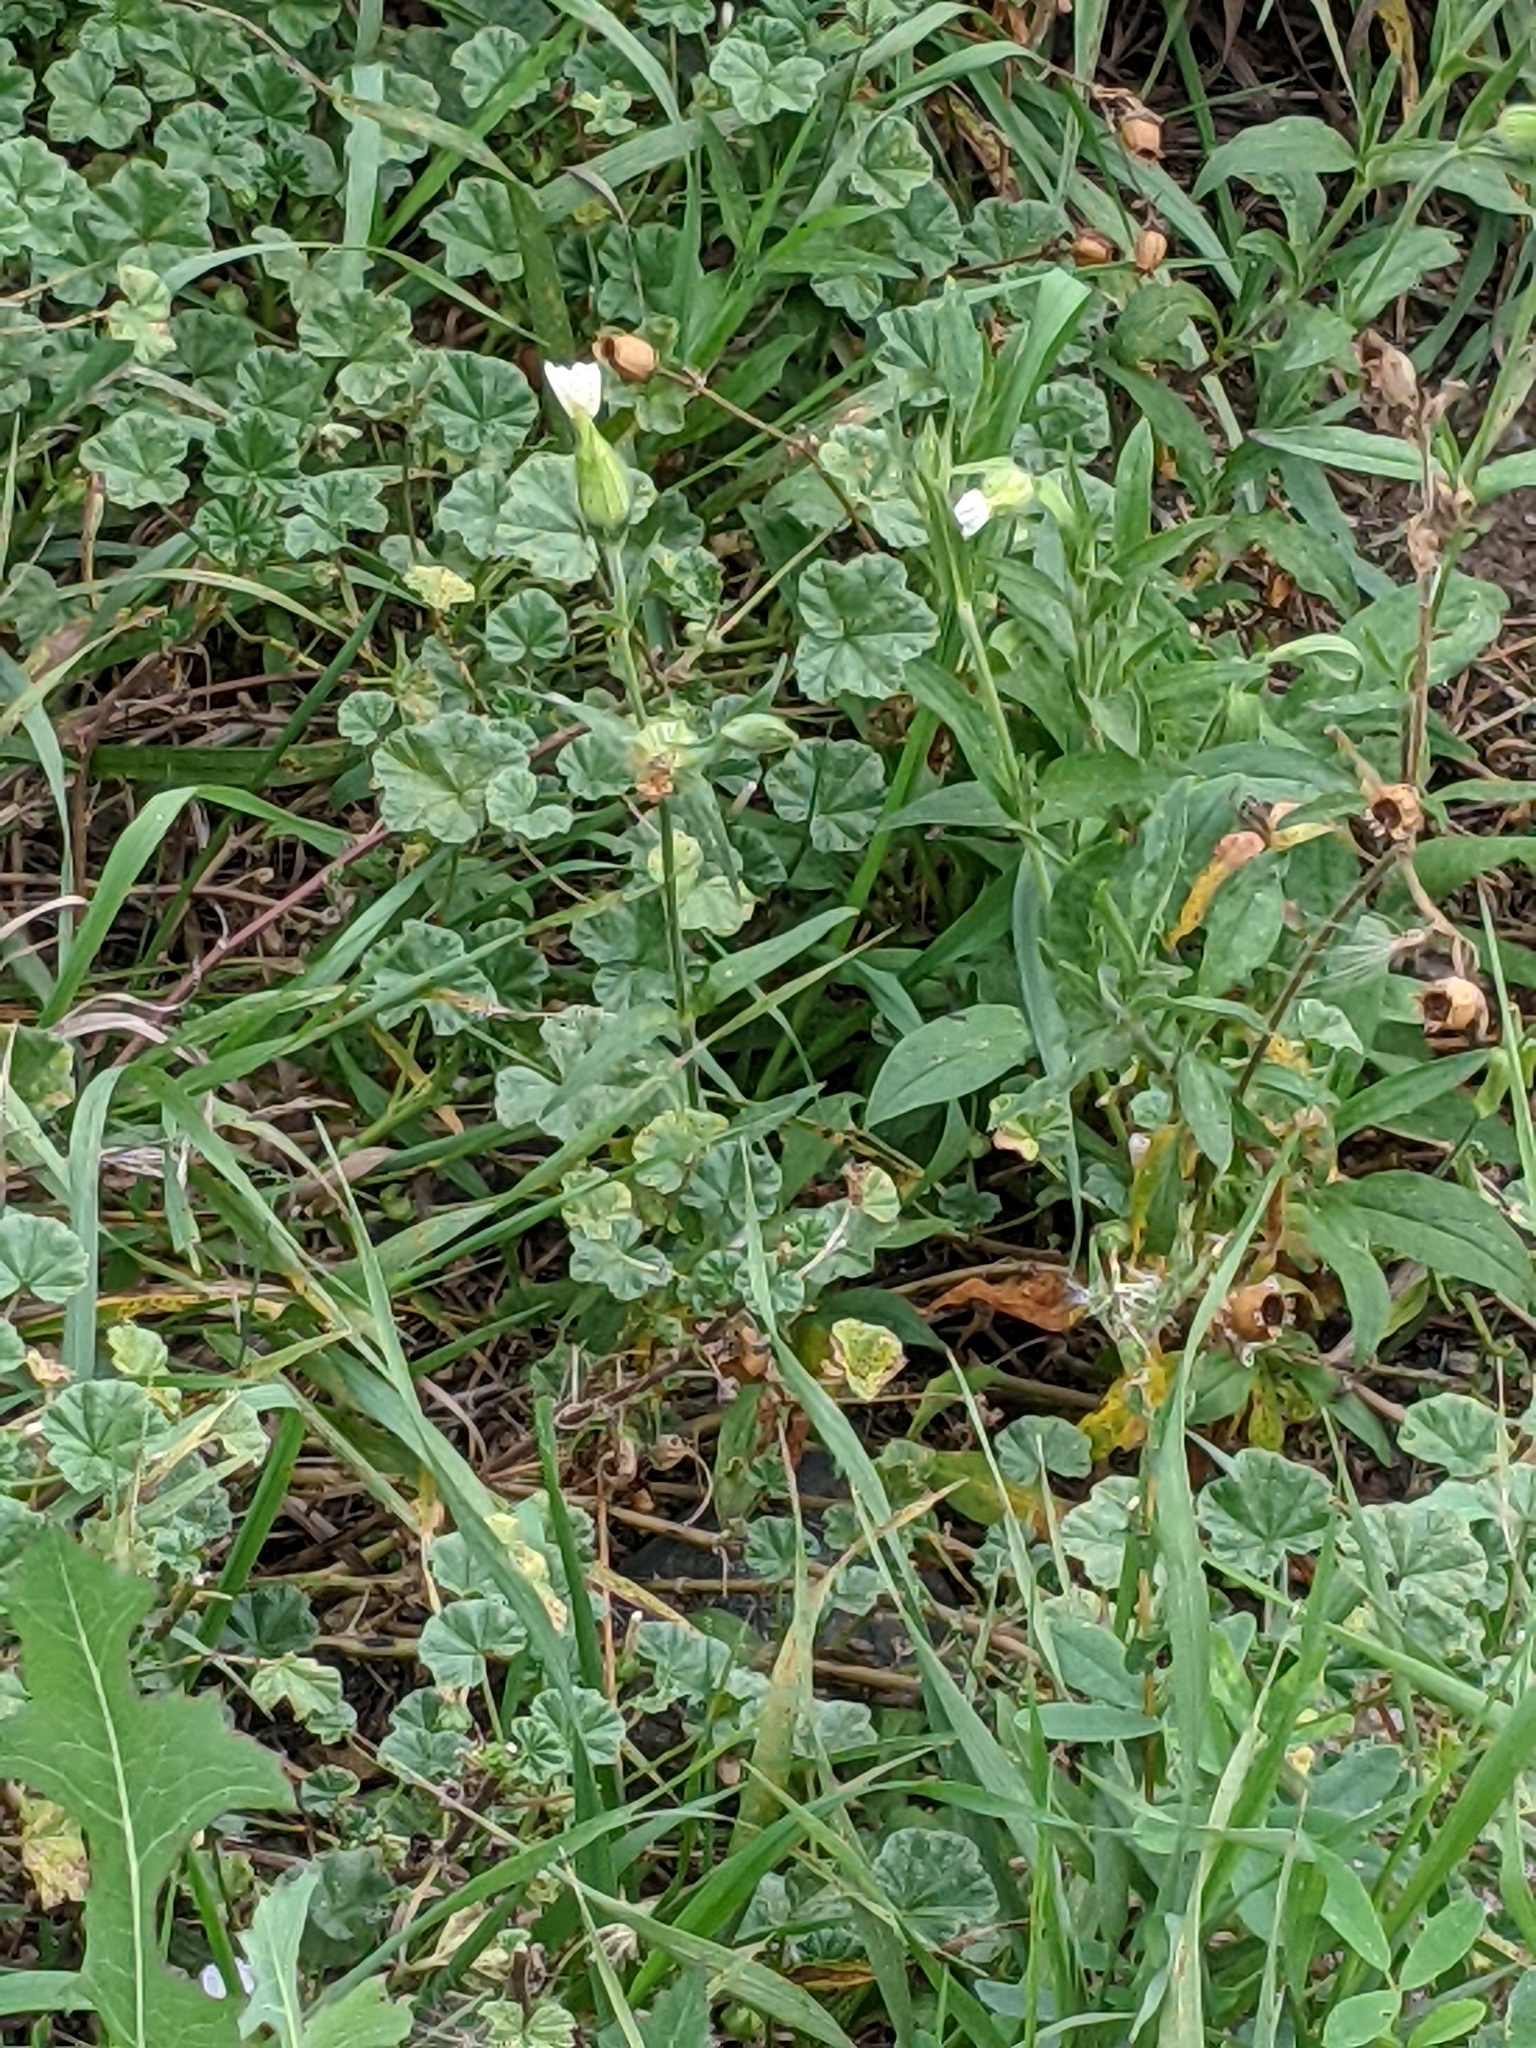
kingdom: Plantae
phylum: Tracheophyta
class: Magnoliopsida
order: Caryophyllales
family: Caryophyllaceae
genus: Saponaria
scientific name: Saponaria officinalis
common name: Soapwort
